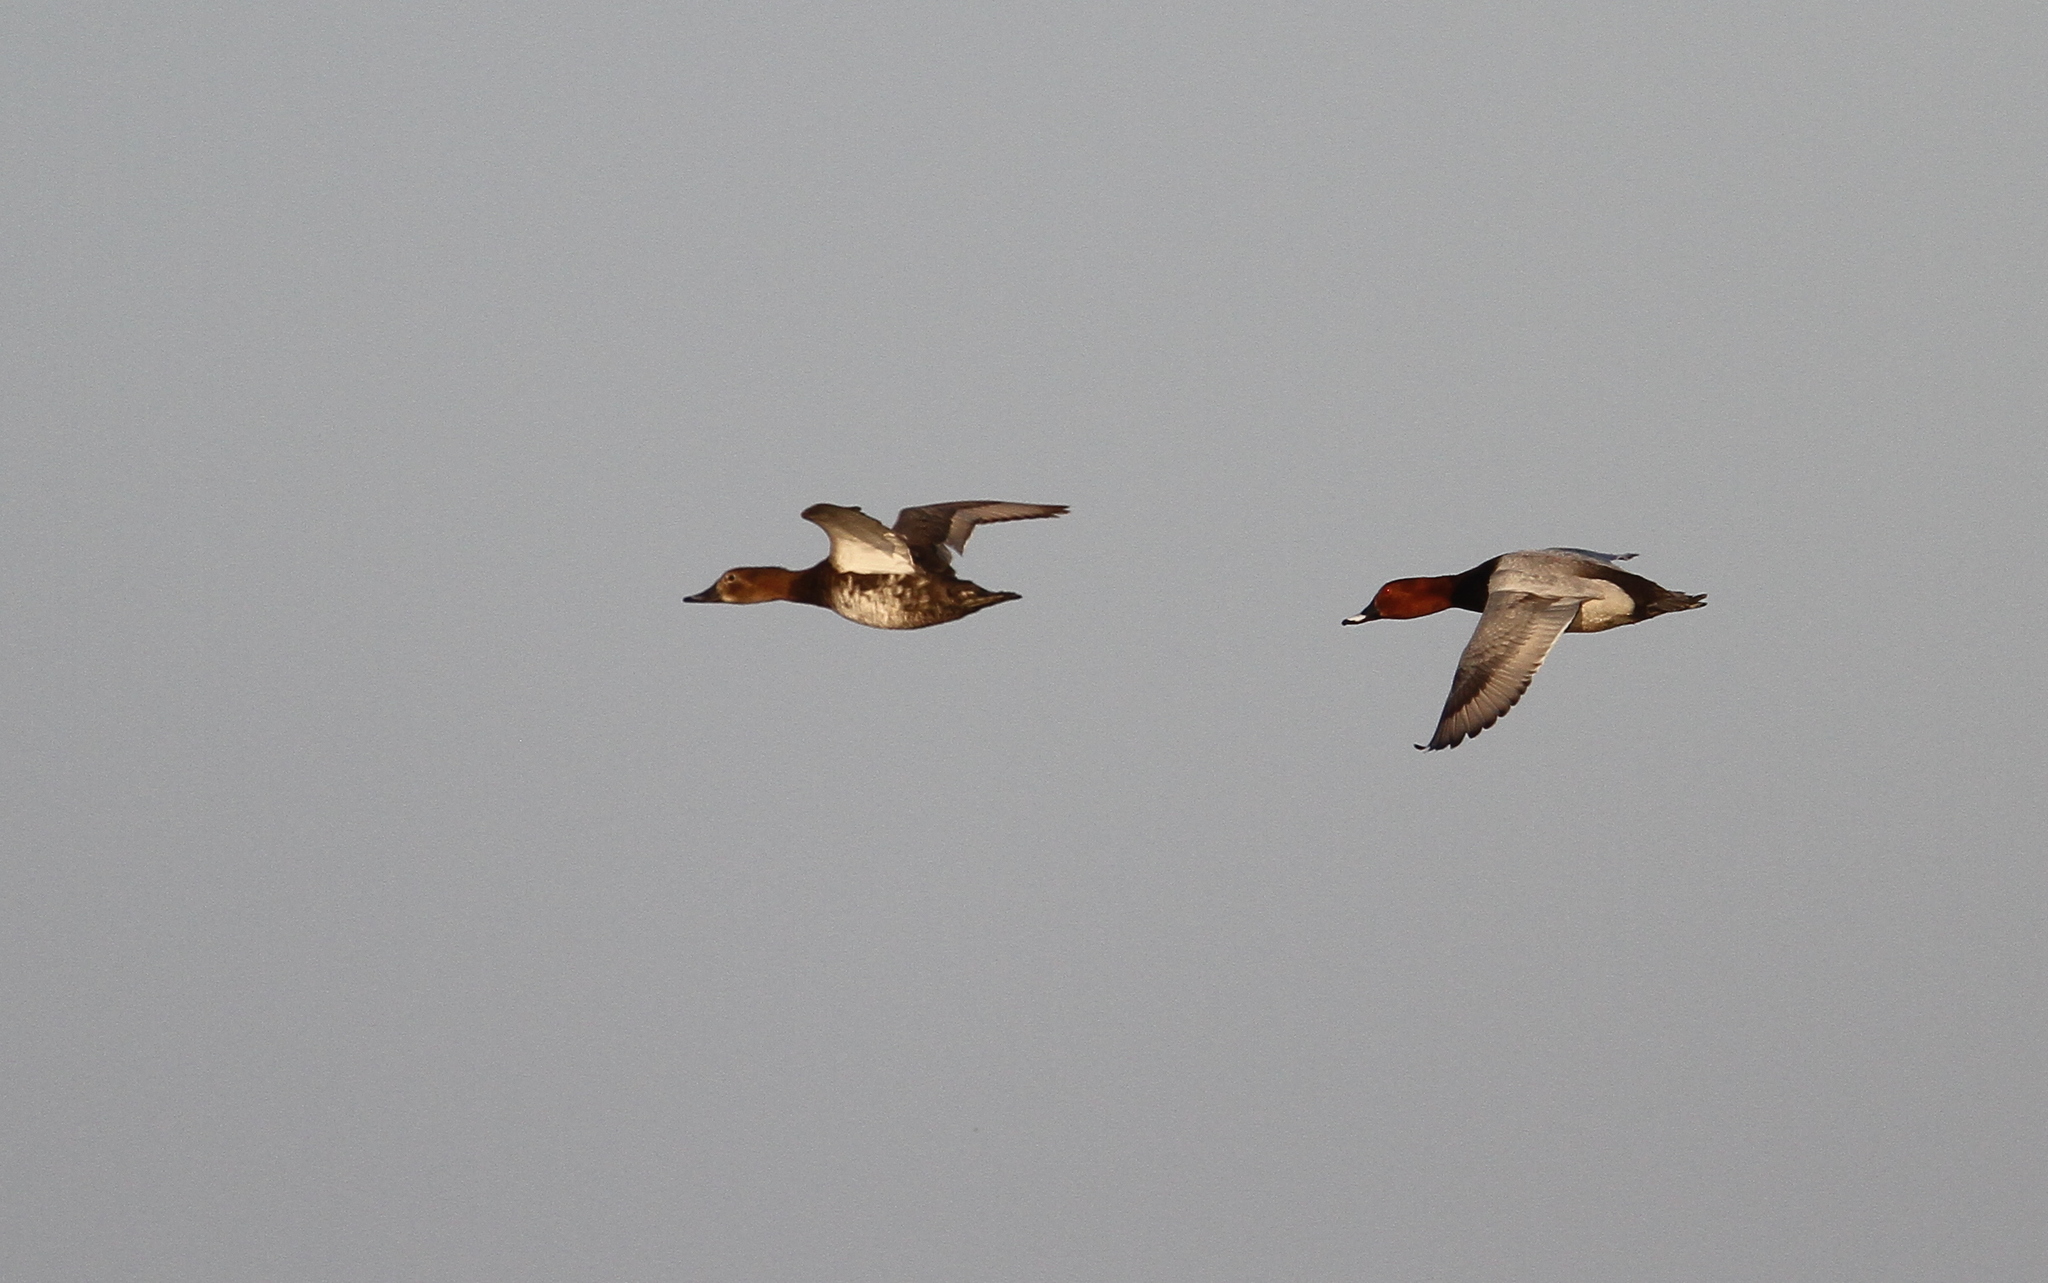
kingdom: Animalia
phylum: Chordata
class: Aves
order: Anseriformes
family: Anatidae
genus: Aythya
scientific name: Aythya ferina
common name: Common pochard
